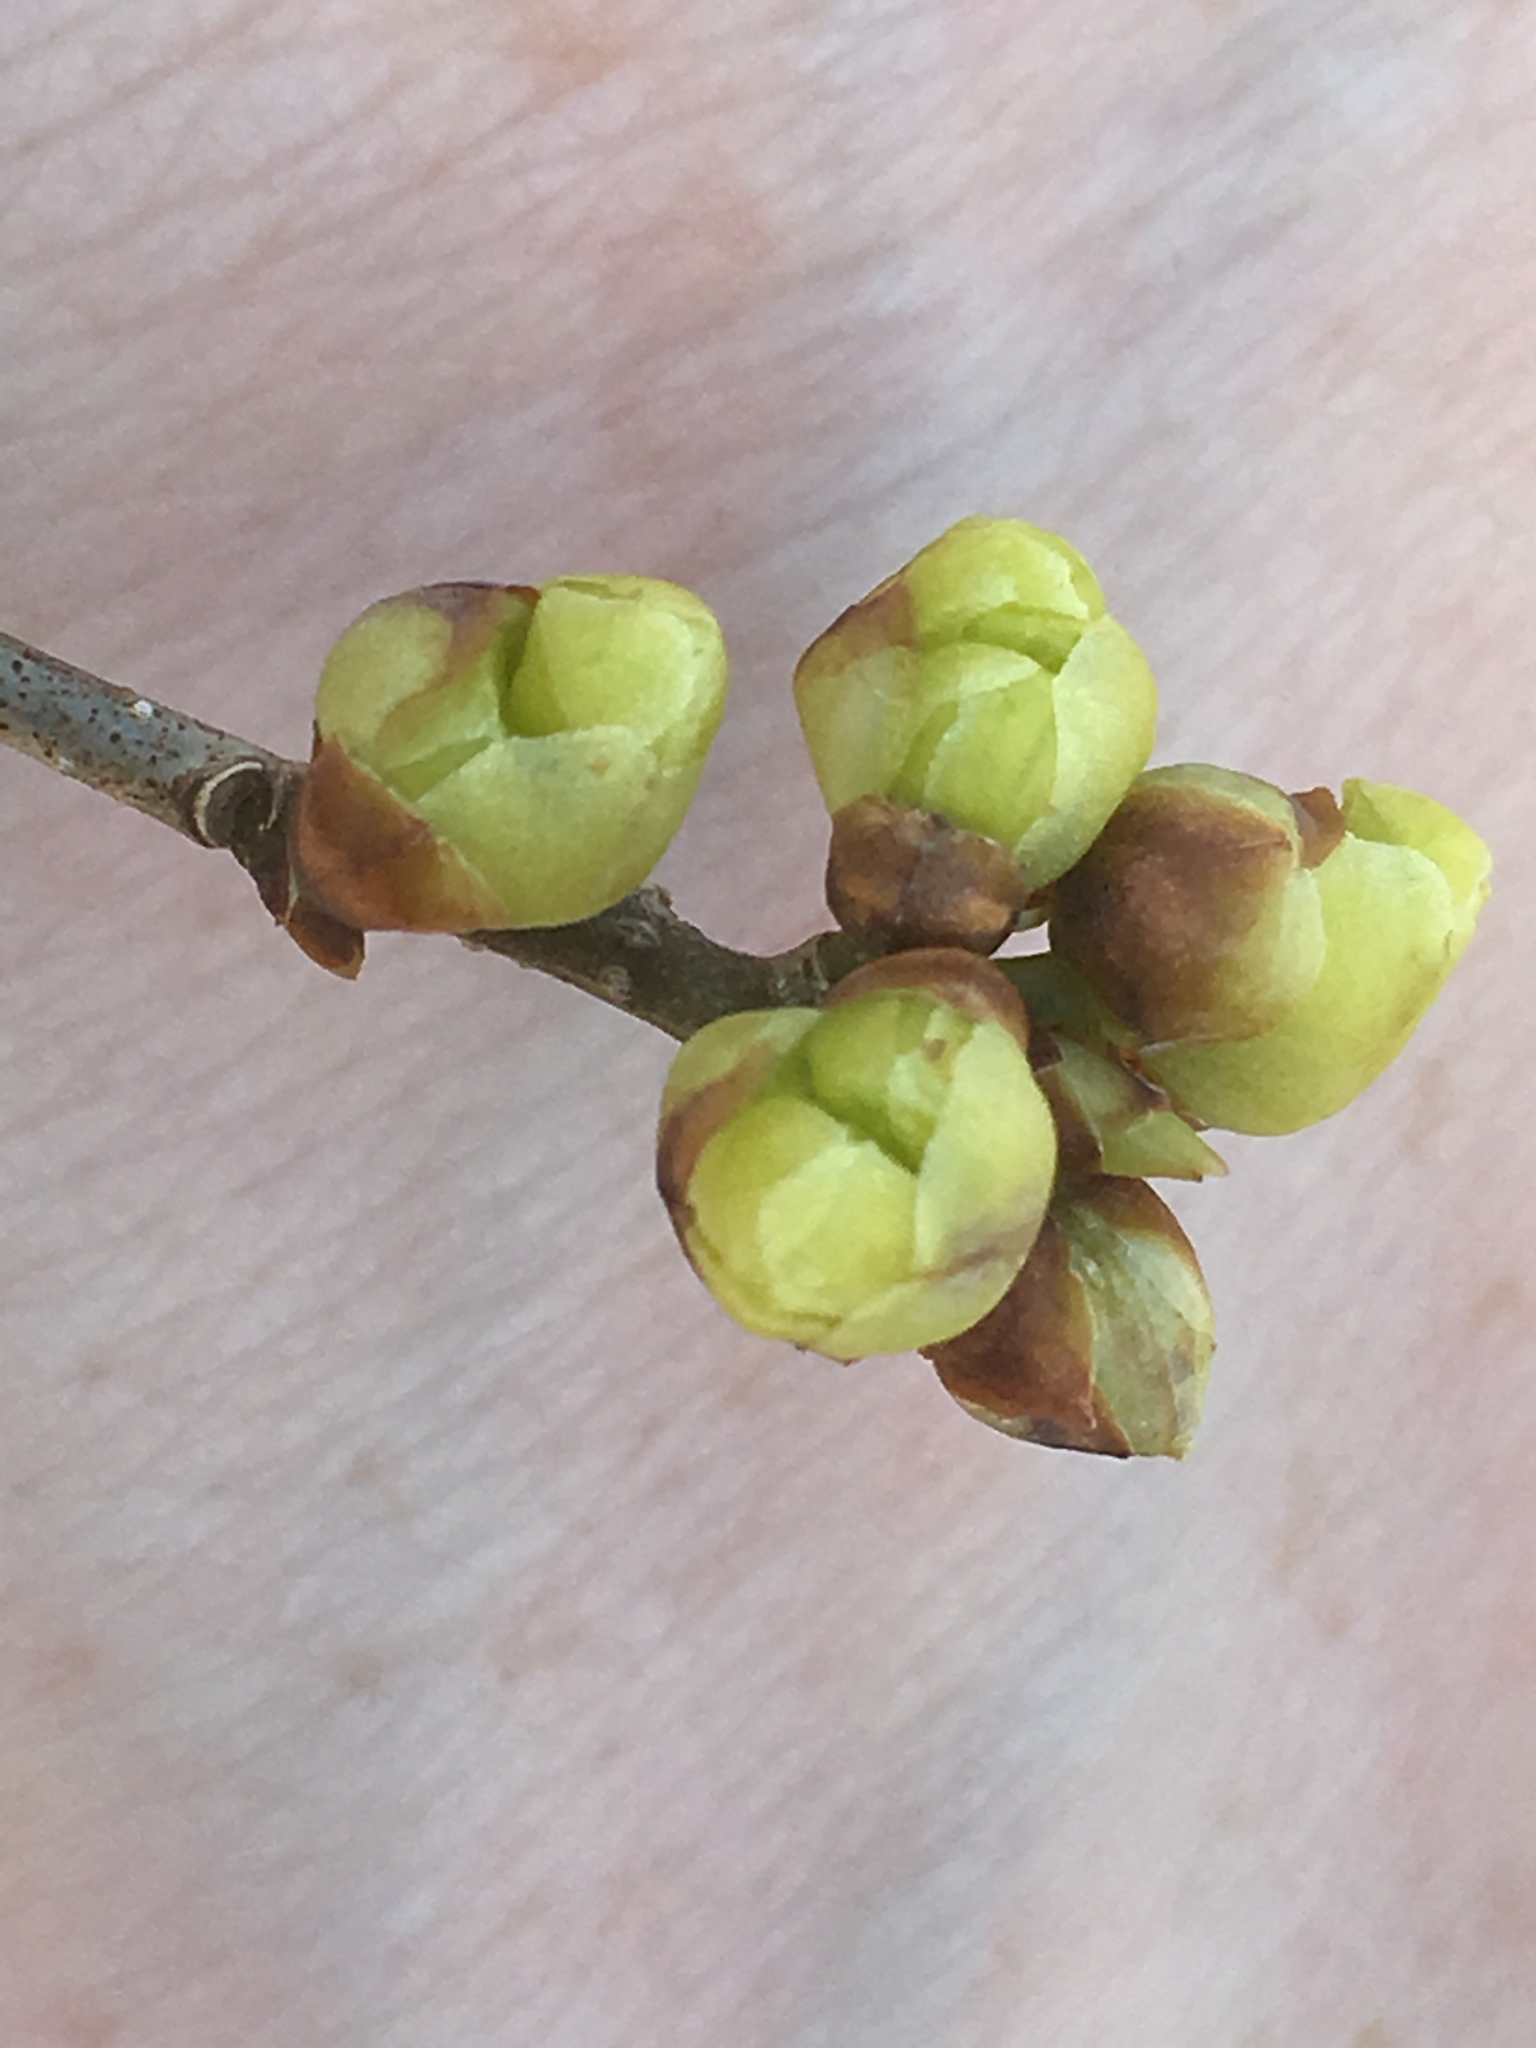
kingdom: Plantae
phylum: Tracheophyta
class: Magnoliopsida
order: Laurales
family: Lauraceae
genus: Lindera
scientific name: Lindera benzoin
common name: Spicebush
